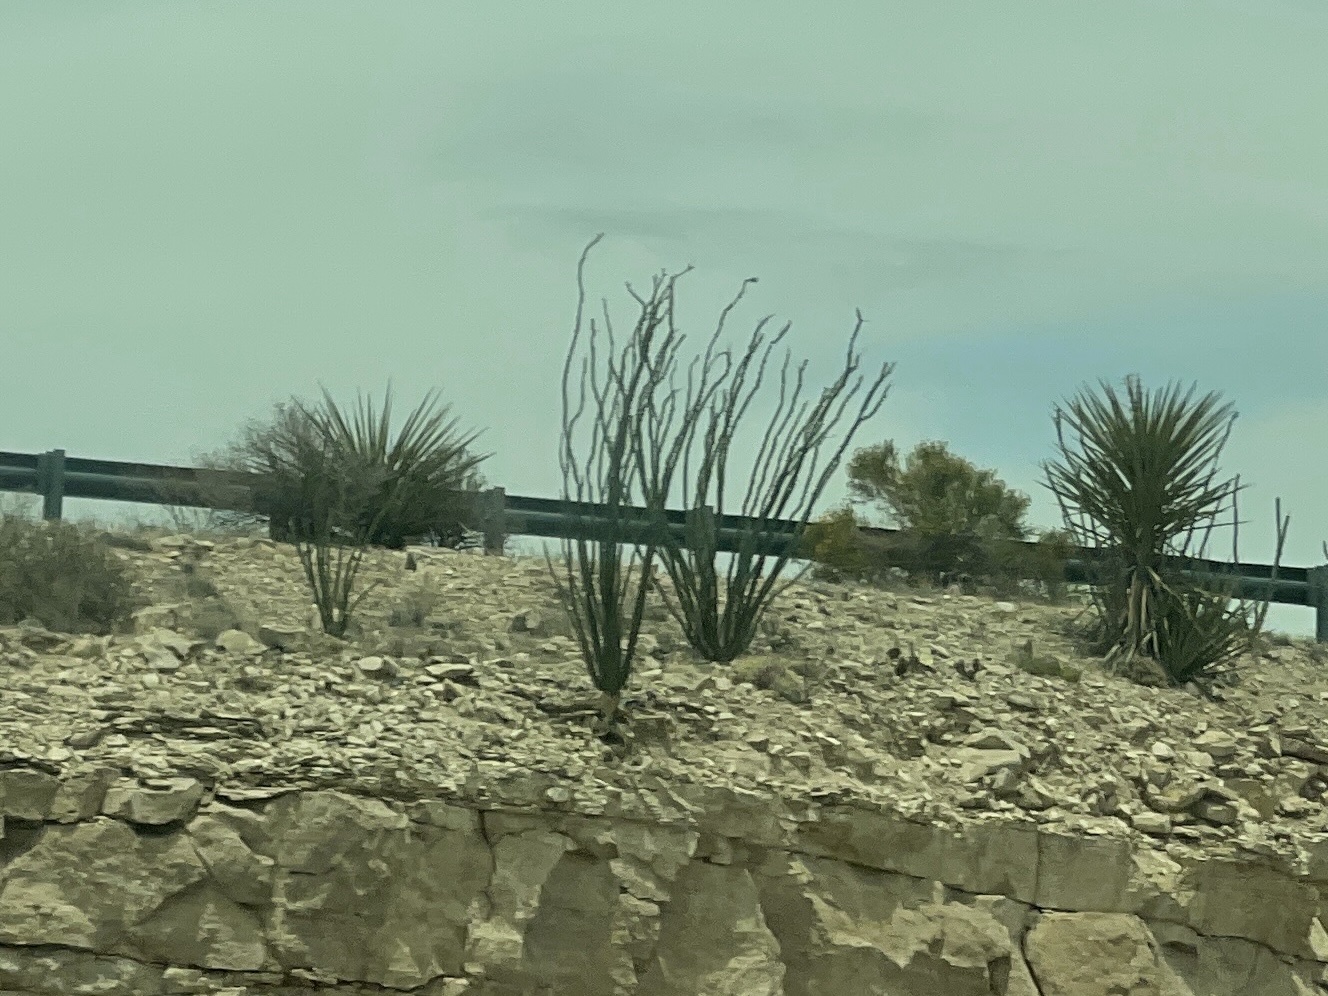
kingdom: Plantae
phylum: Tracheophyta
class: Magnoliopsida
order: Ericales
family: Fouquieriaceae
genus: Fouquieria
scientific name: Fouquieria splendens
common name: Vine-cactus
